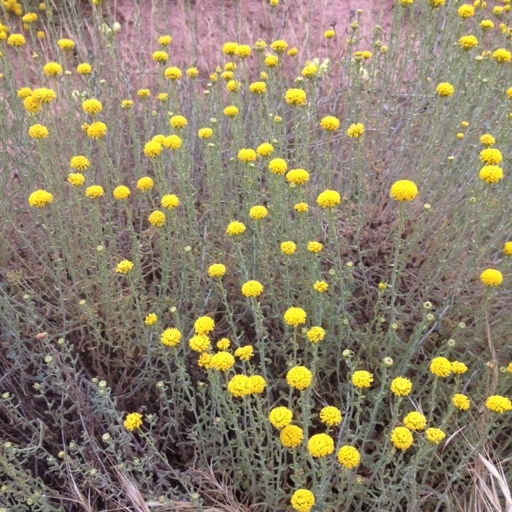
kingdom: Plantae
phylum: Tracheophyta
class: Magnoliopsida
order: Asterales
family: Asteraceae
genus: Santolina
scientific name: Santolina chamaecyparissus
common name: Lavender-cotton
